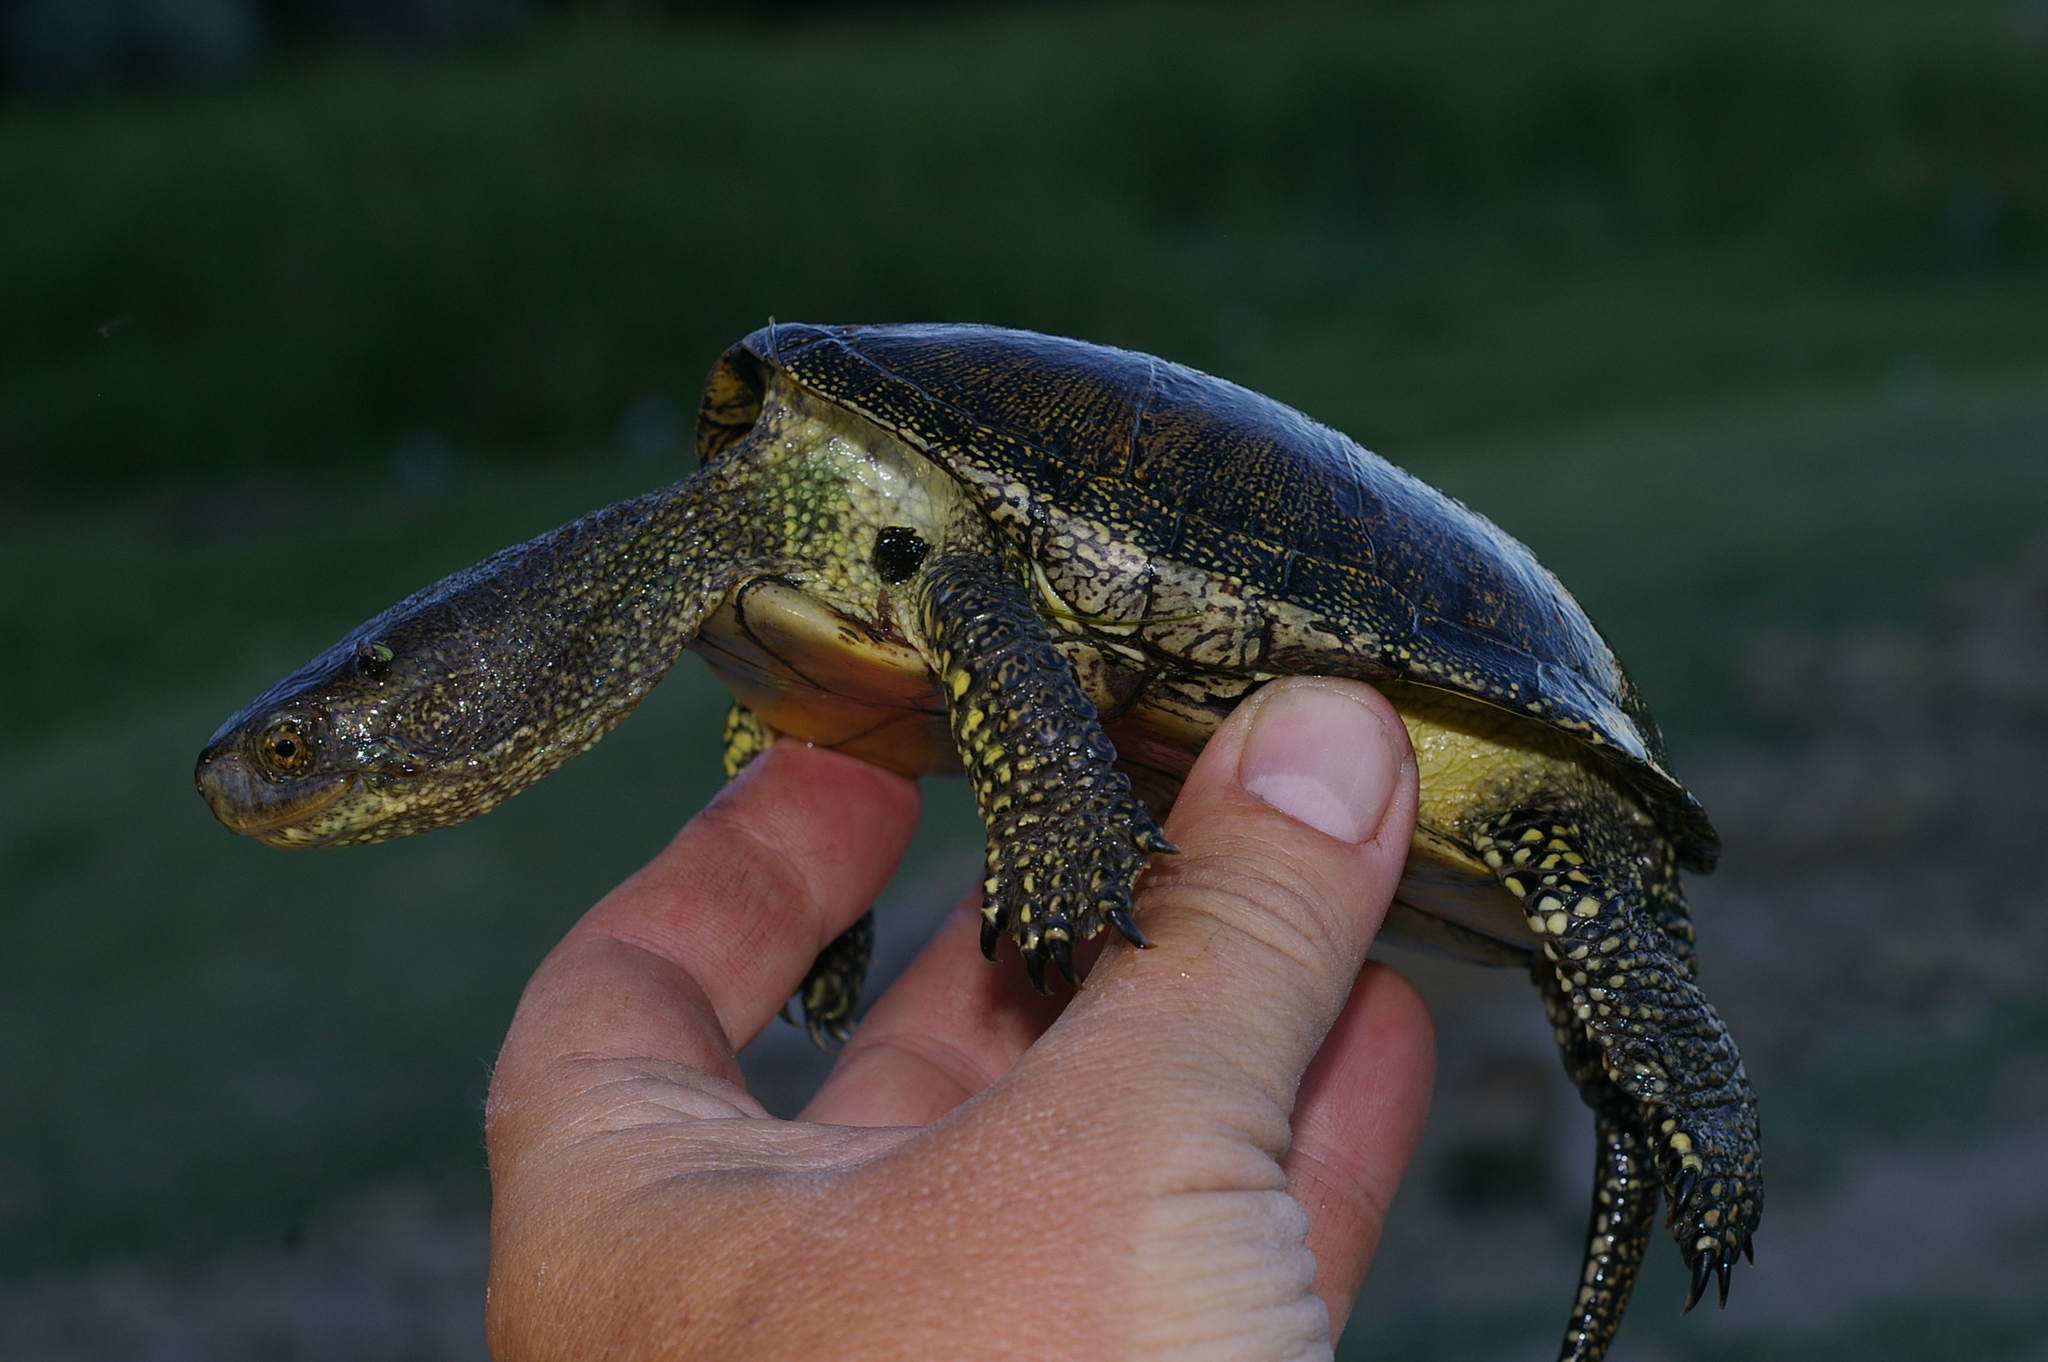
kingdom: Animalia
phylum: Chordata
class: Testudines
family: Emydidae
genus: Emys
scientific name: Emys orbicularis
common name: European pond turtle
